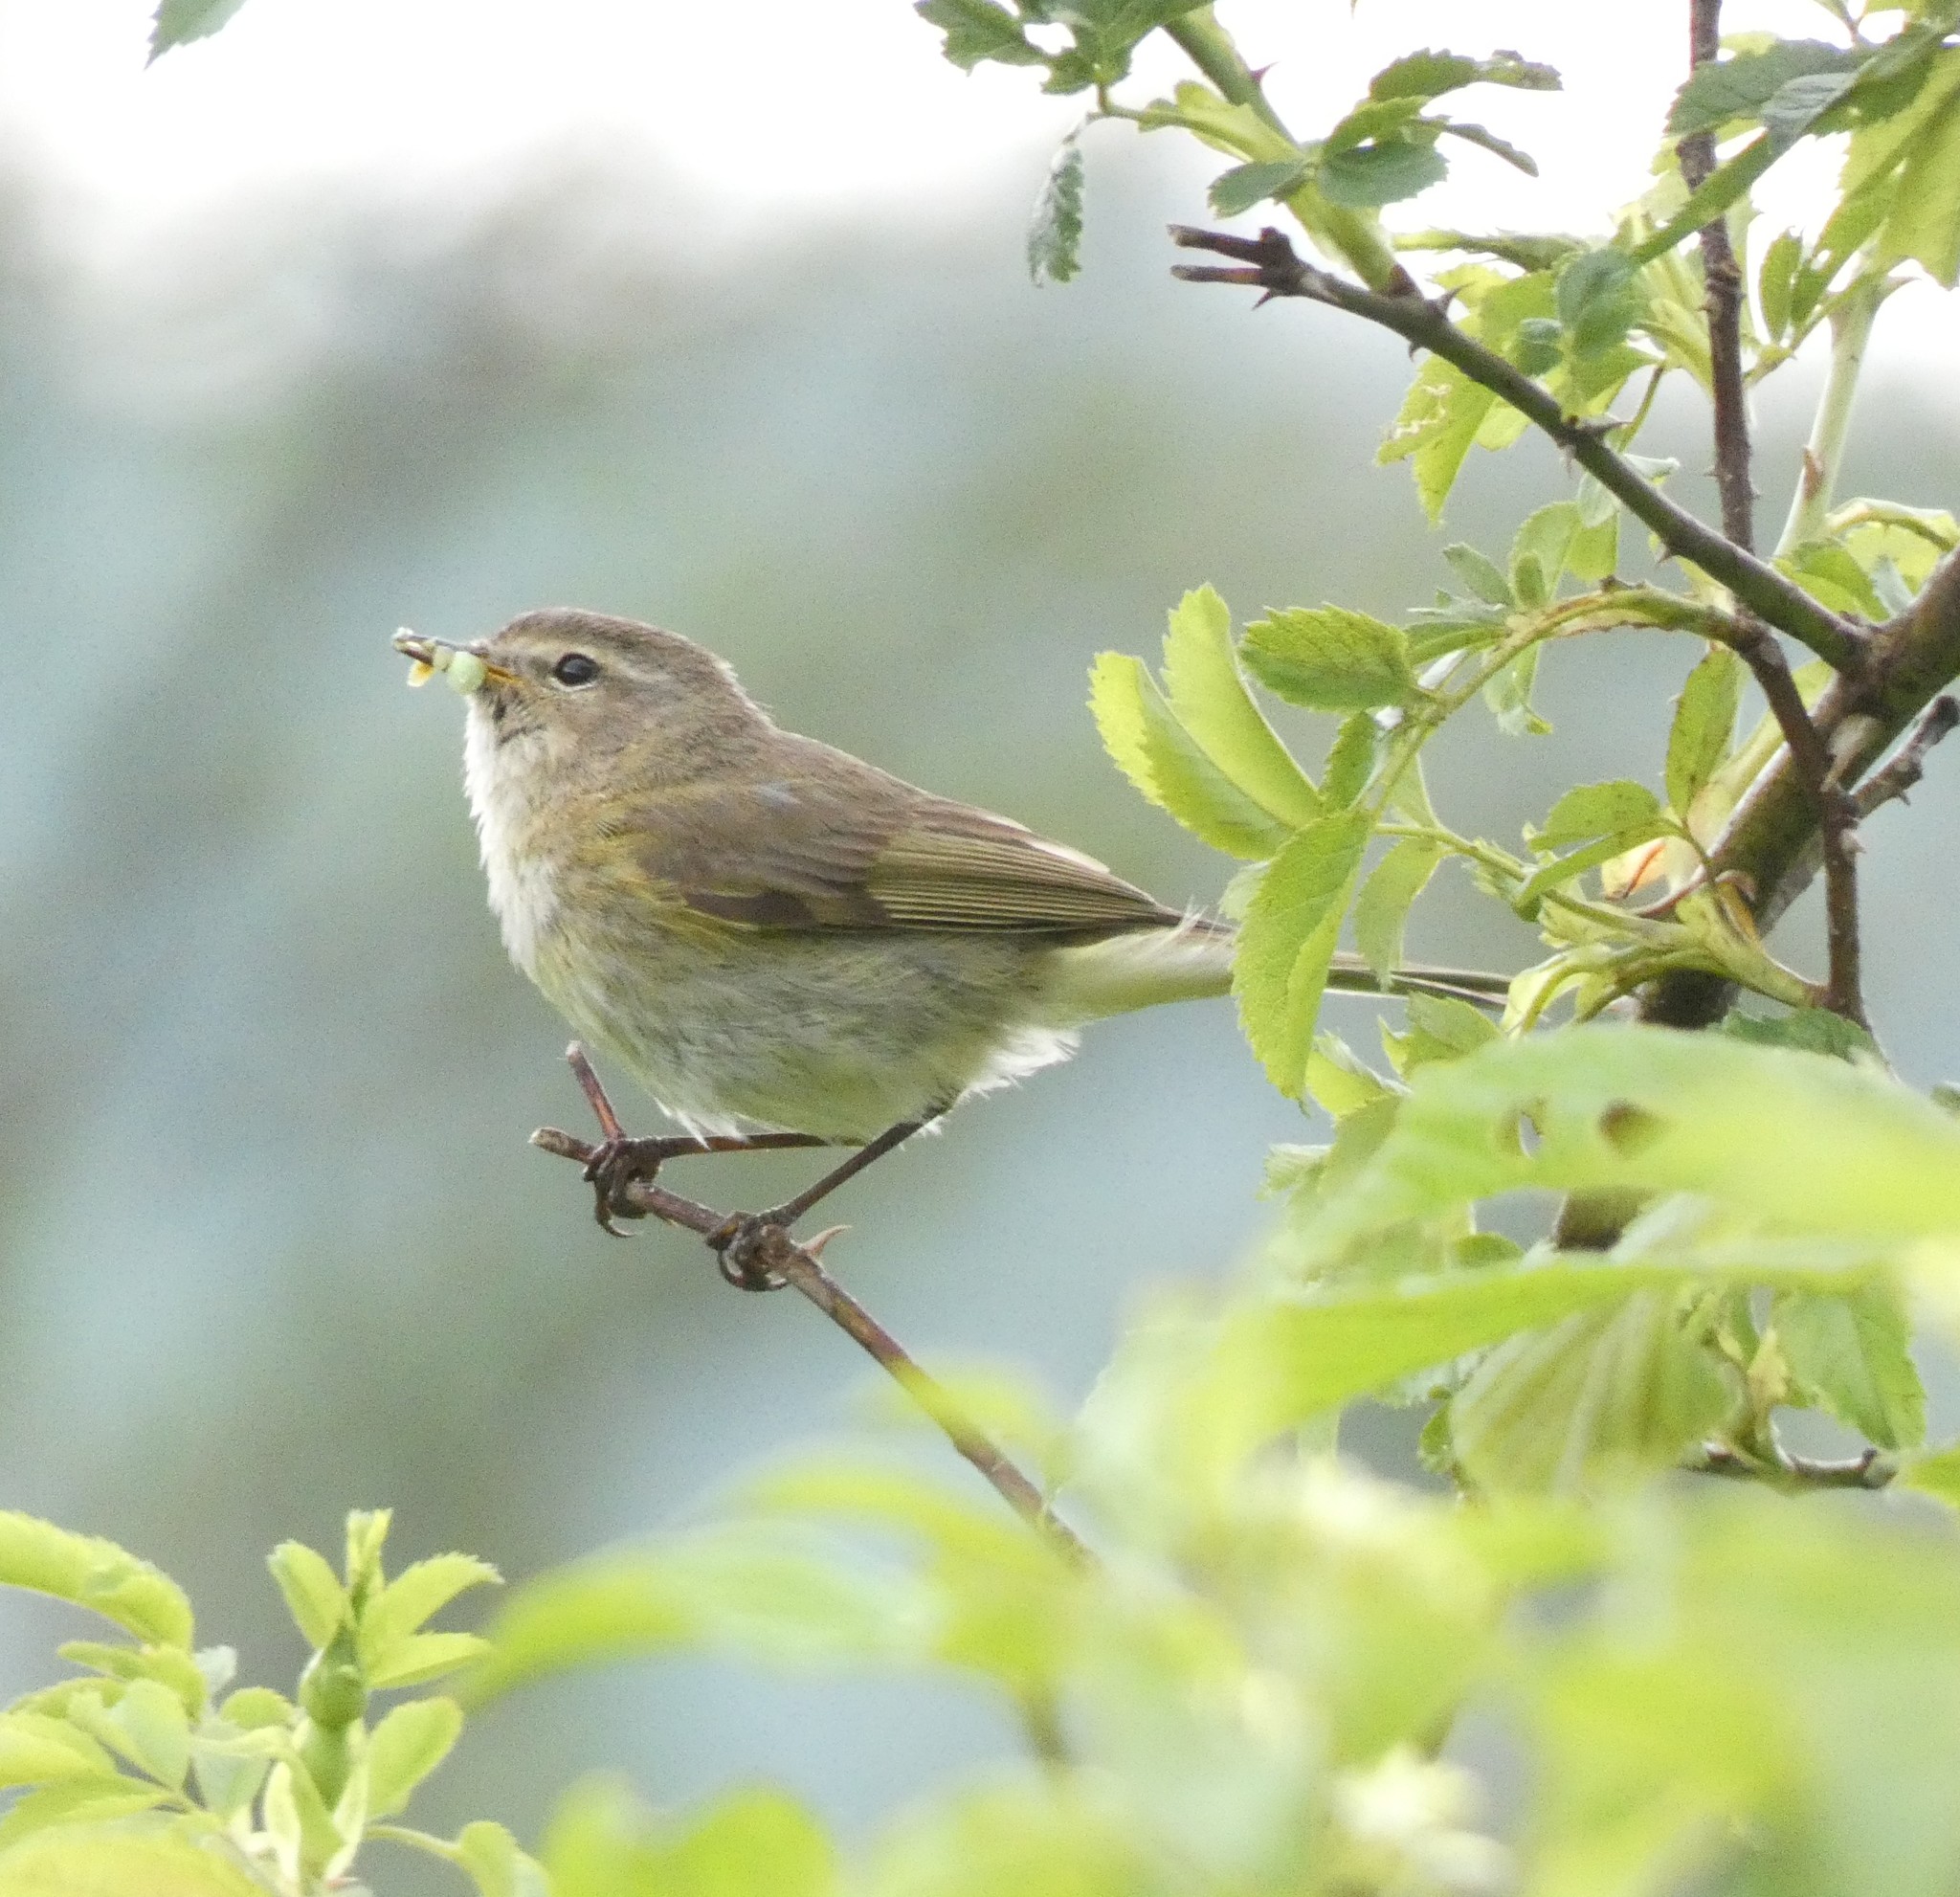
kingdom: Animalia
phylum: Chordata
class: Aves
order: Passeriformes
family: Phylloscopidae
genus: Phylloscopus
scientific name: Phylloscopus collybita
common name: Common chiffchaff
